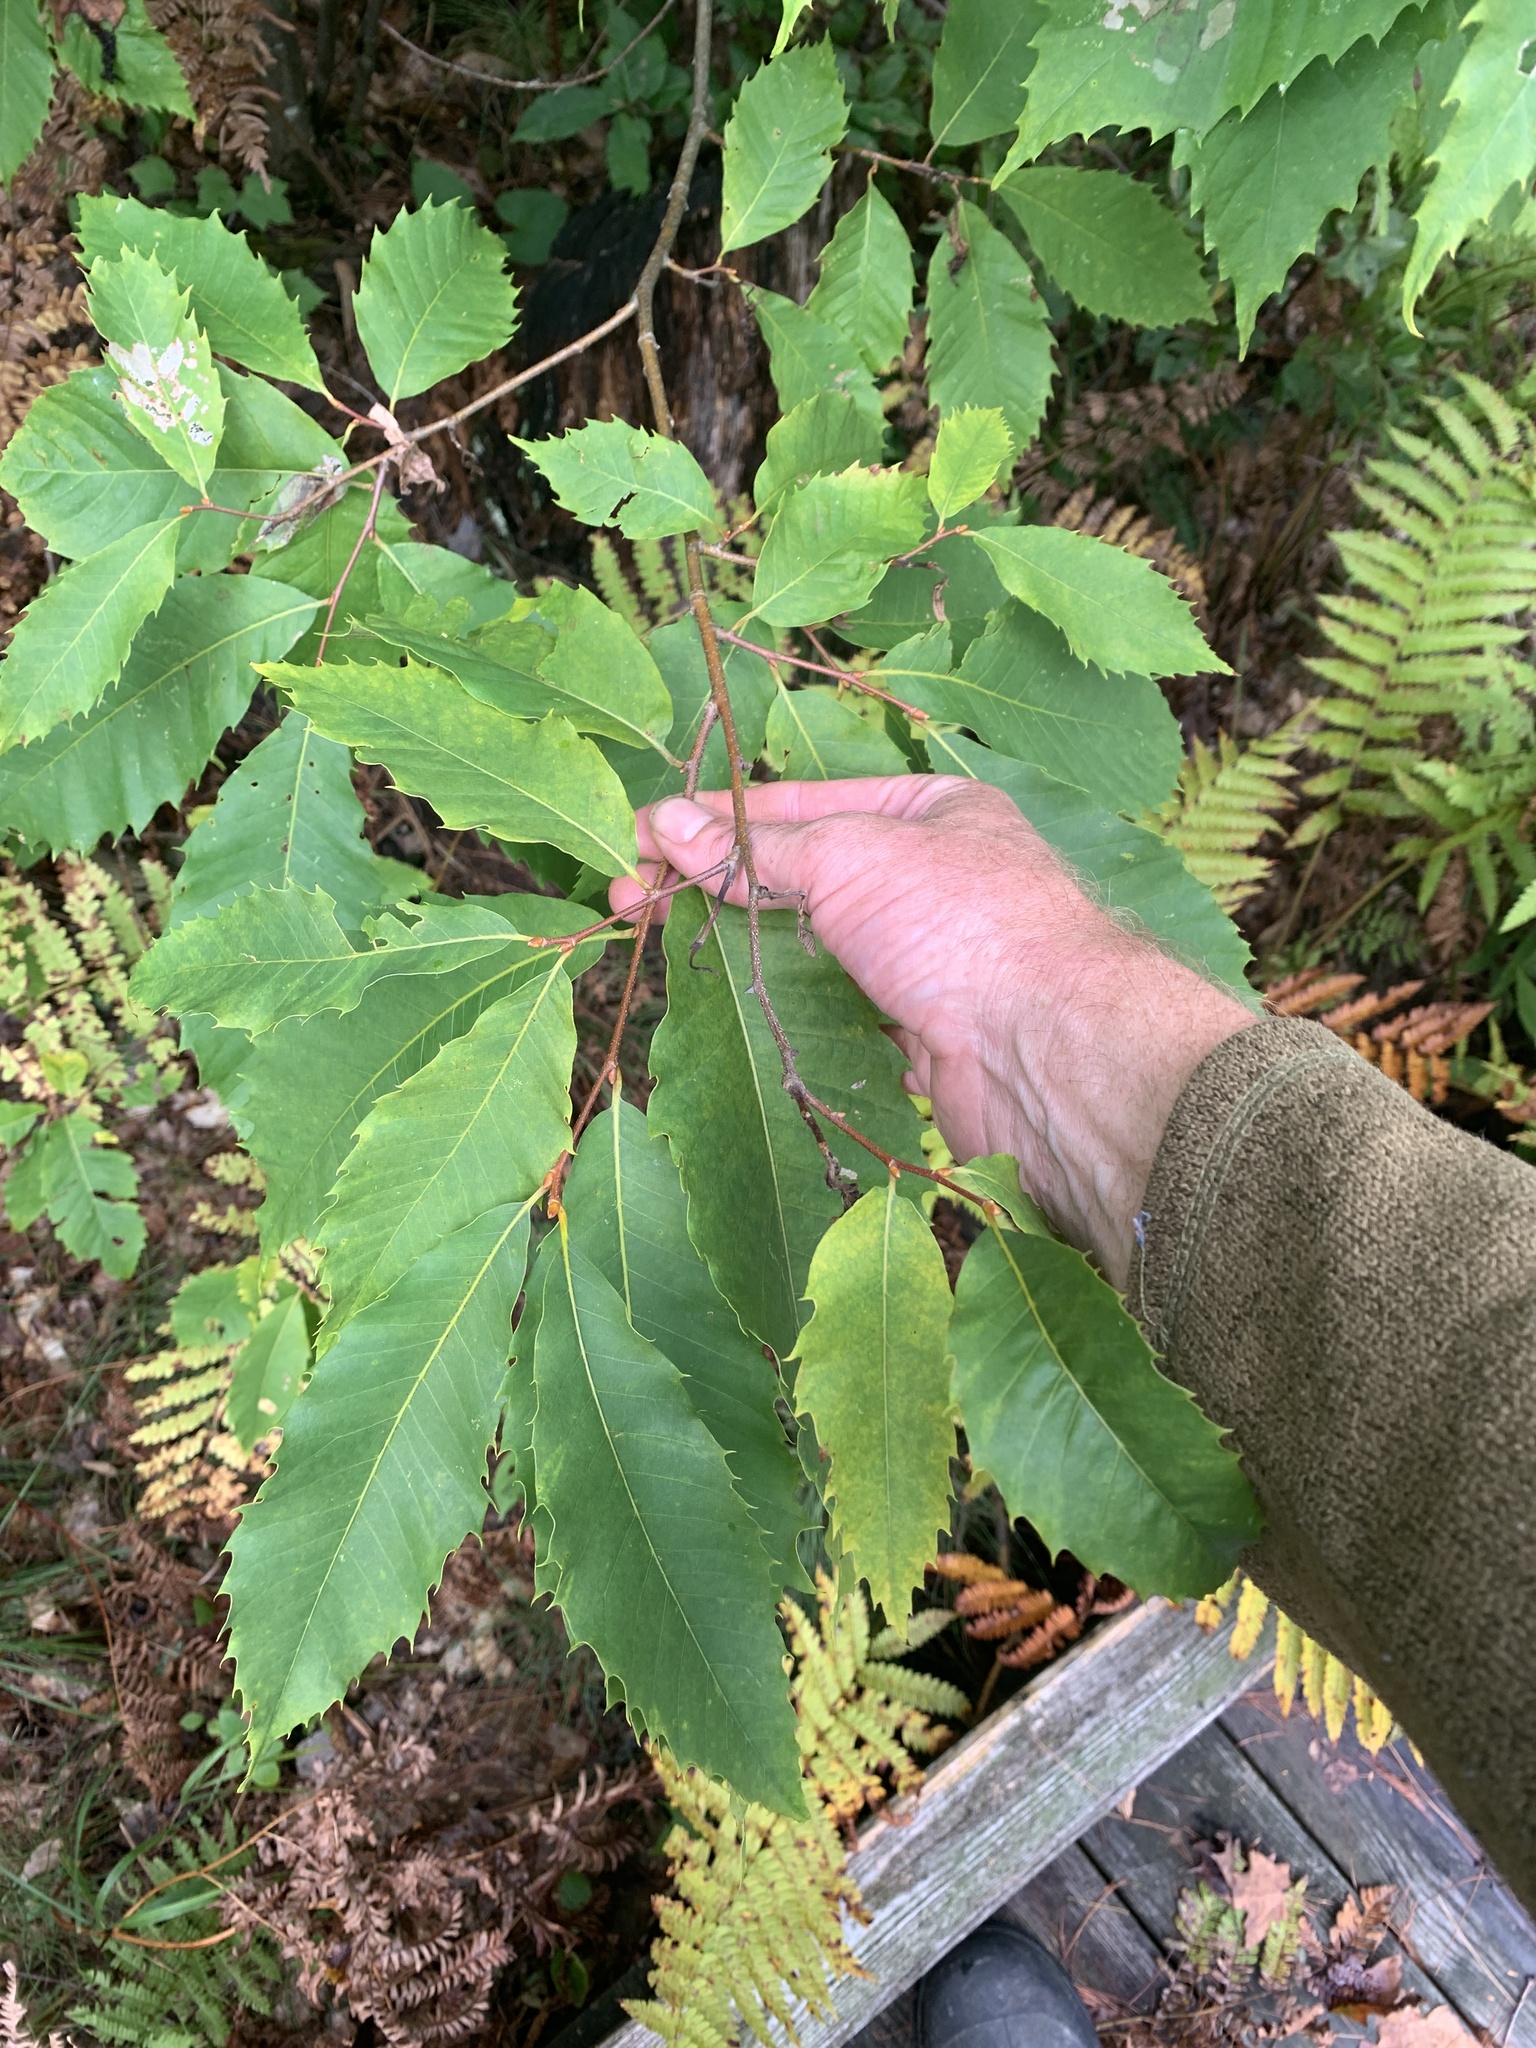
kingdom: Plantae
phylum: Tracheophyta
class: Magnoliopsida
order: Fagales
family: Fagaceae
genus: Castanea
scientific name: Castanea dentata
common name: American chestnut
